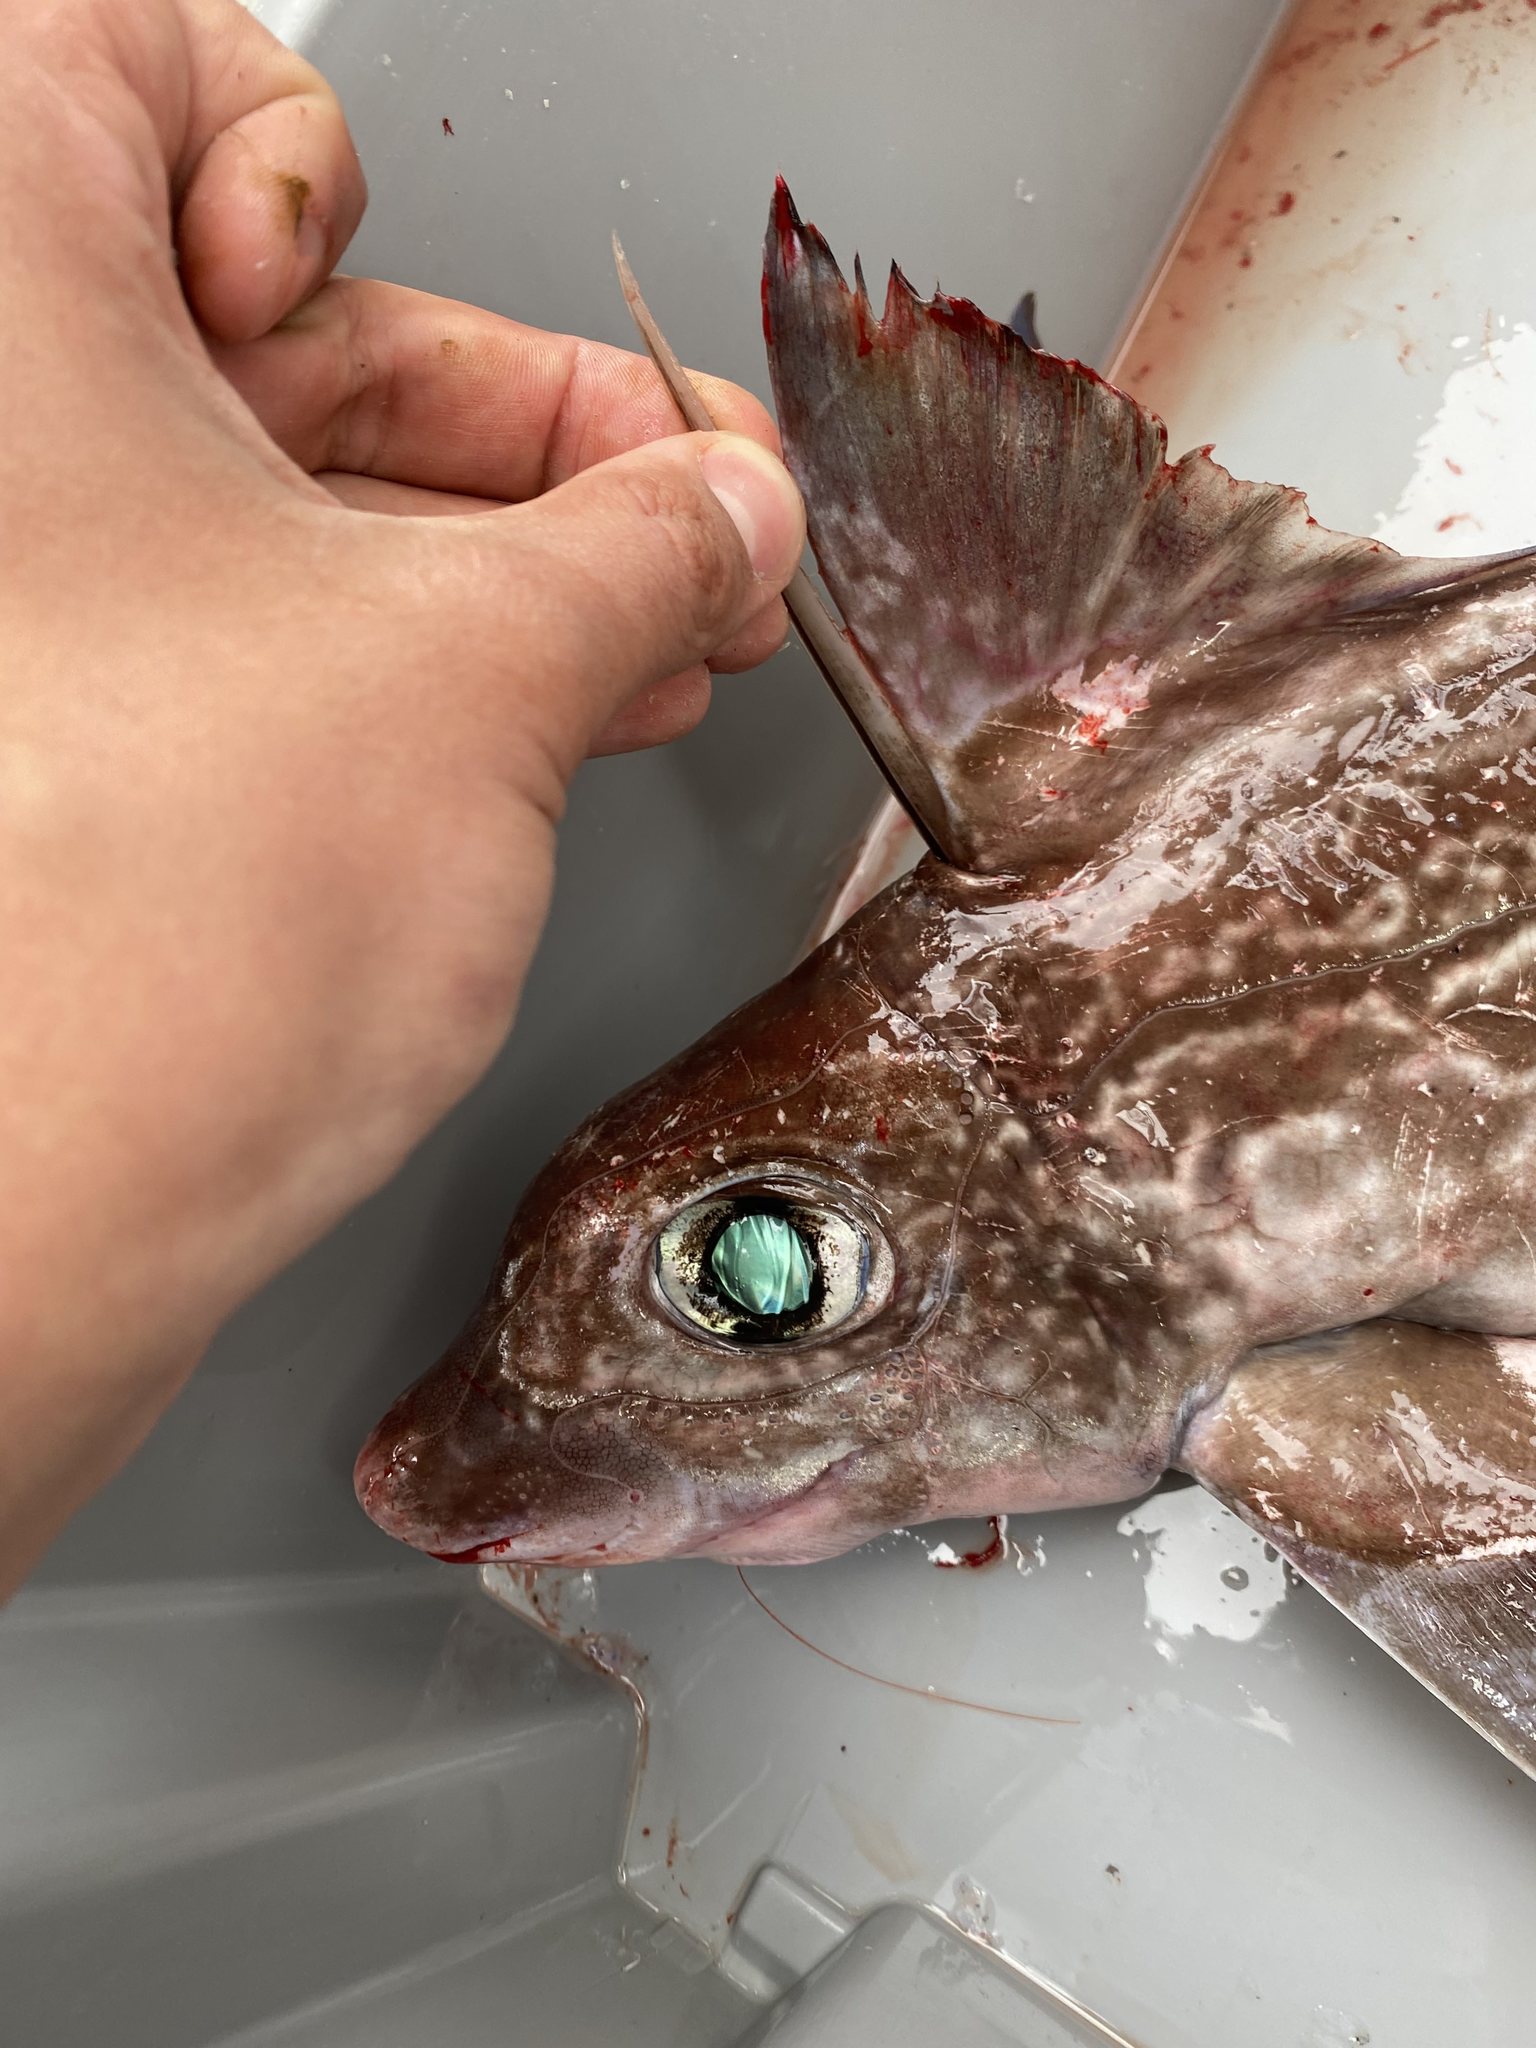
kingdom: Animalia
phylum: Chordata
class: Holocephali
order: Chimaeriformes
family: Chimaeridae
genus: Chimaera
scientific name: Chimaera monstrosa
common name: Rabbitfish
